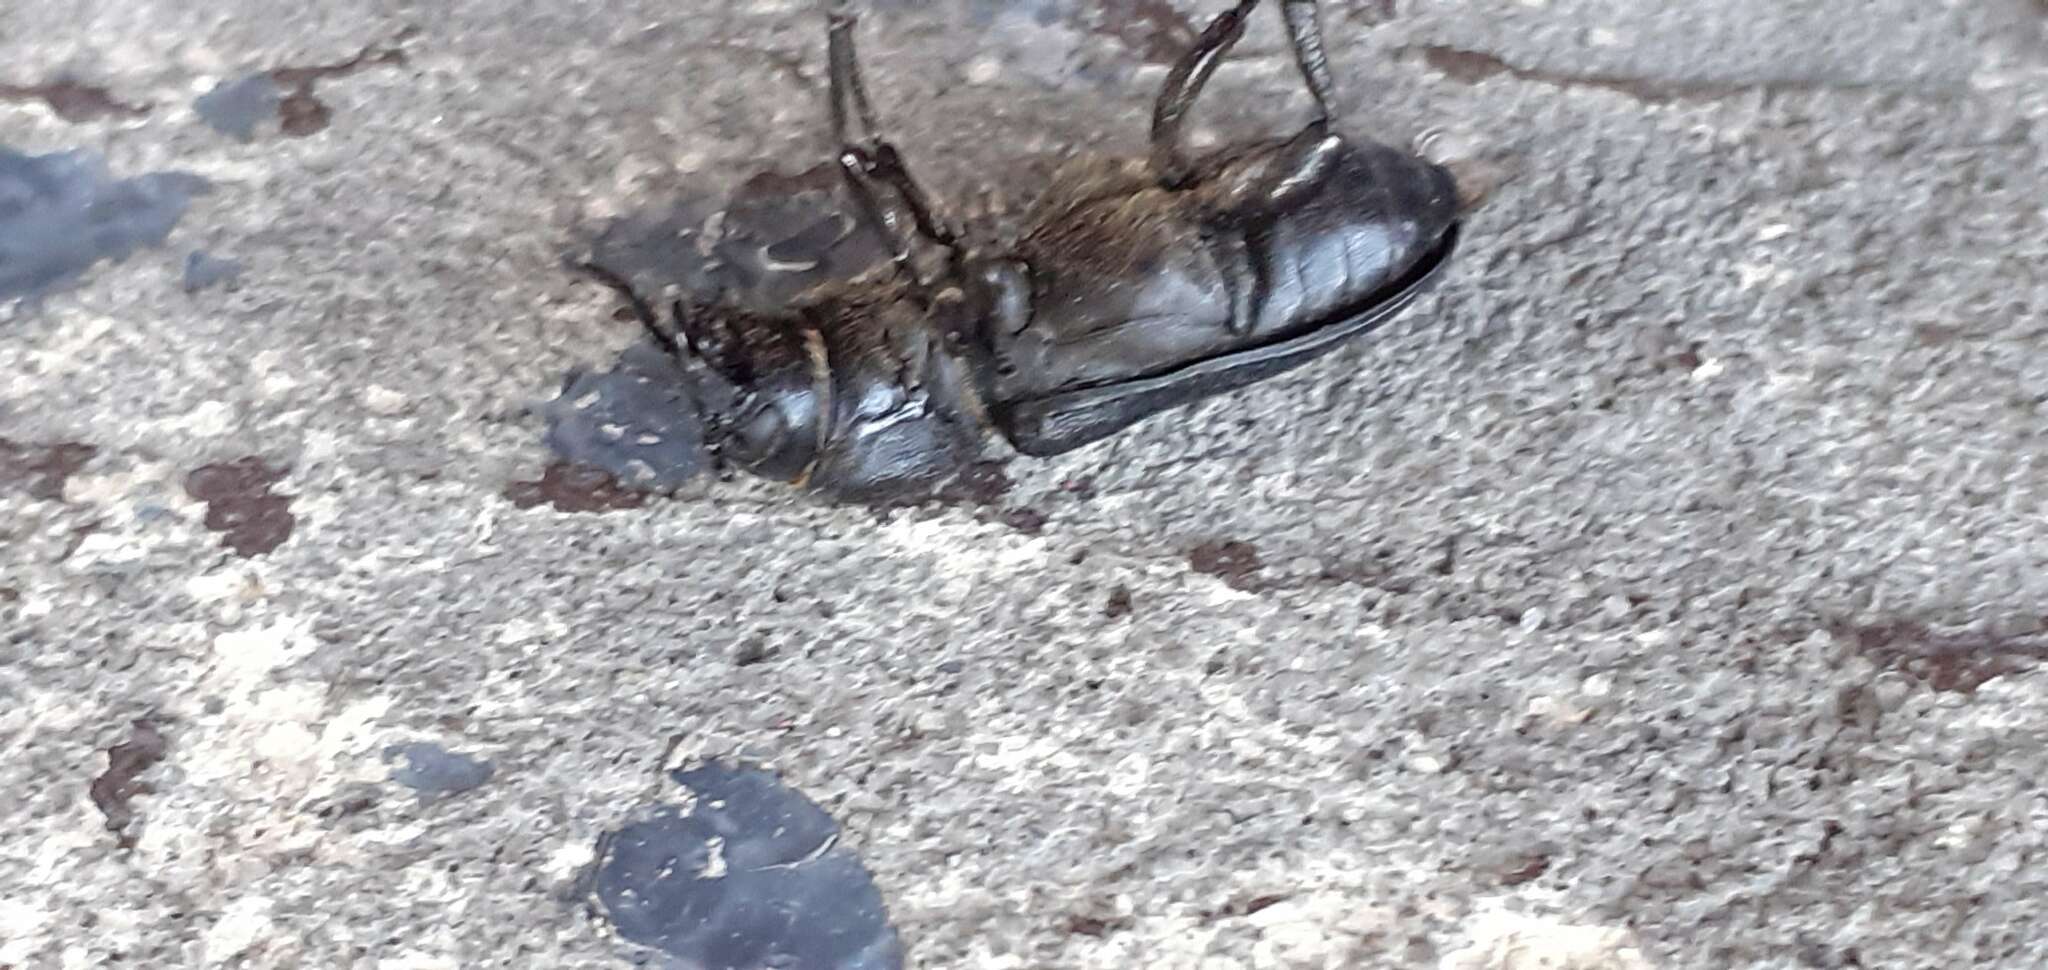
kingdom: Animalia
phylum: Arthropoda
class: Insecta
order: Coleoptera
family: Cerambycidae
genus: Spondylis
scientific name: Spondylis buprestoides
